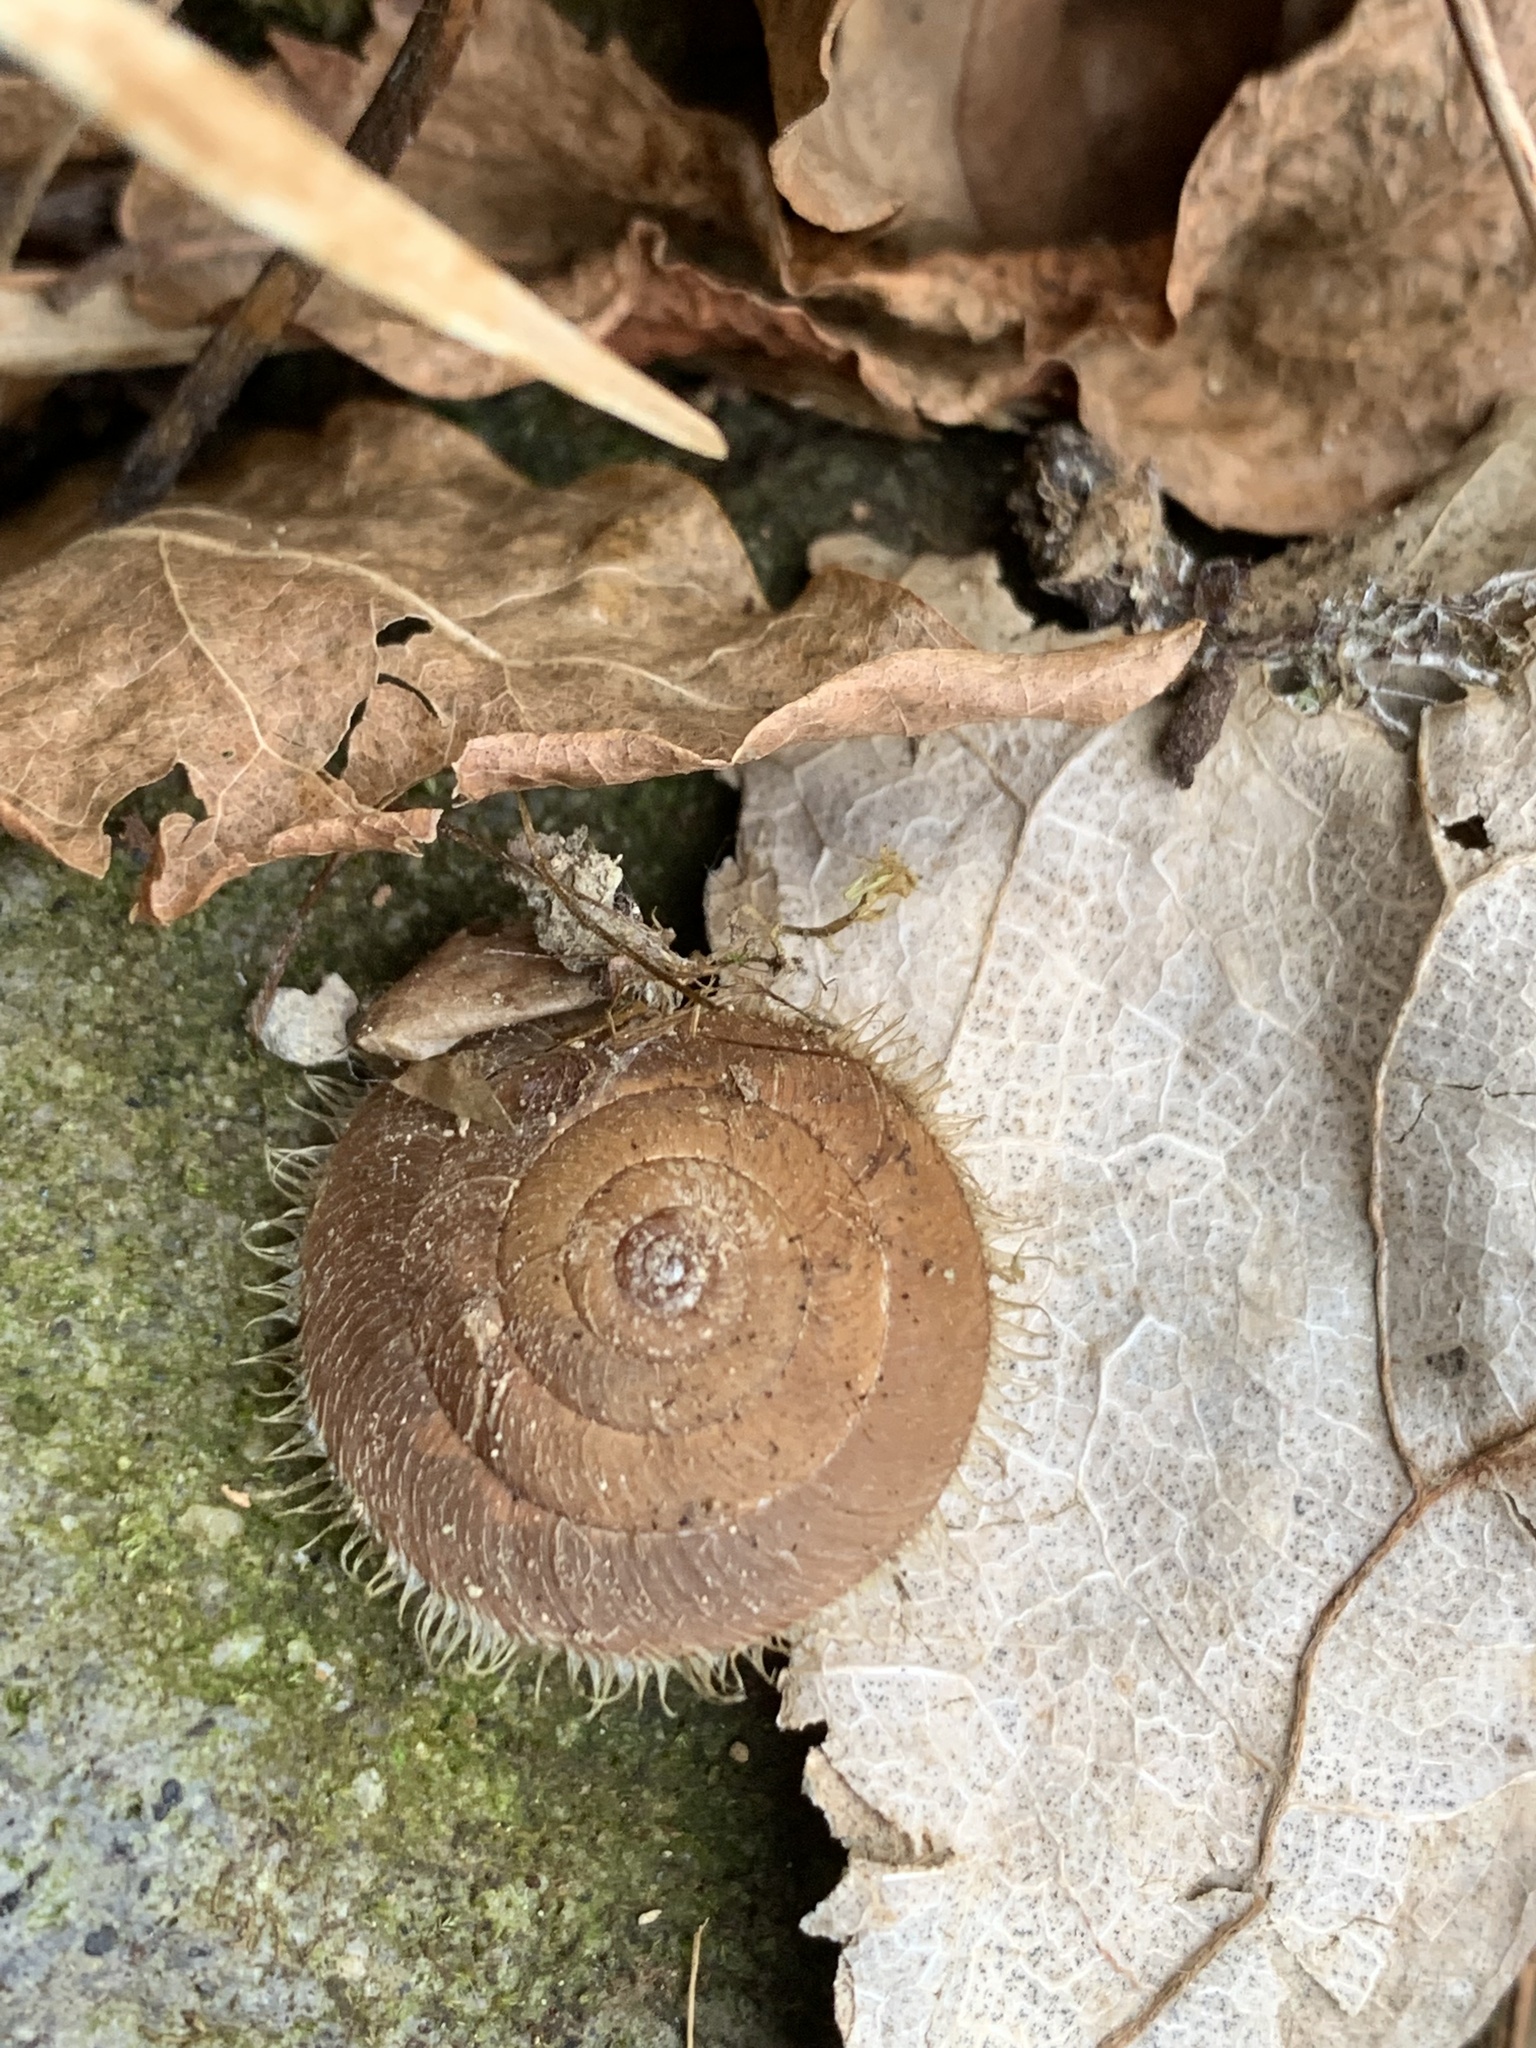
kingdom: Animalia
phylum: Mollusca
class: Gastropoda
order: Stylommatophora
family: Camaenidae
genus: Plectotropis
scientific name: Plectotropis vulgivaga
